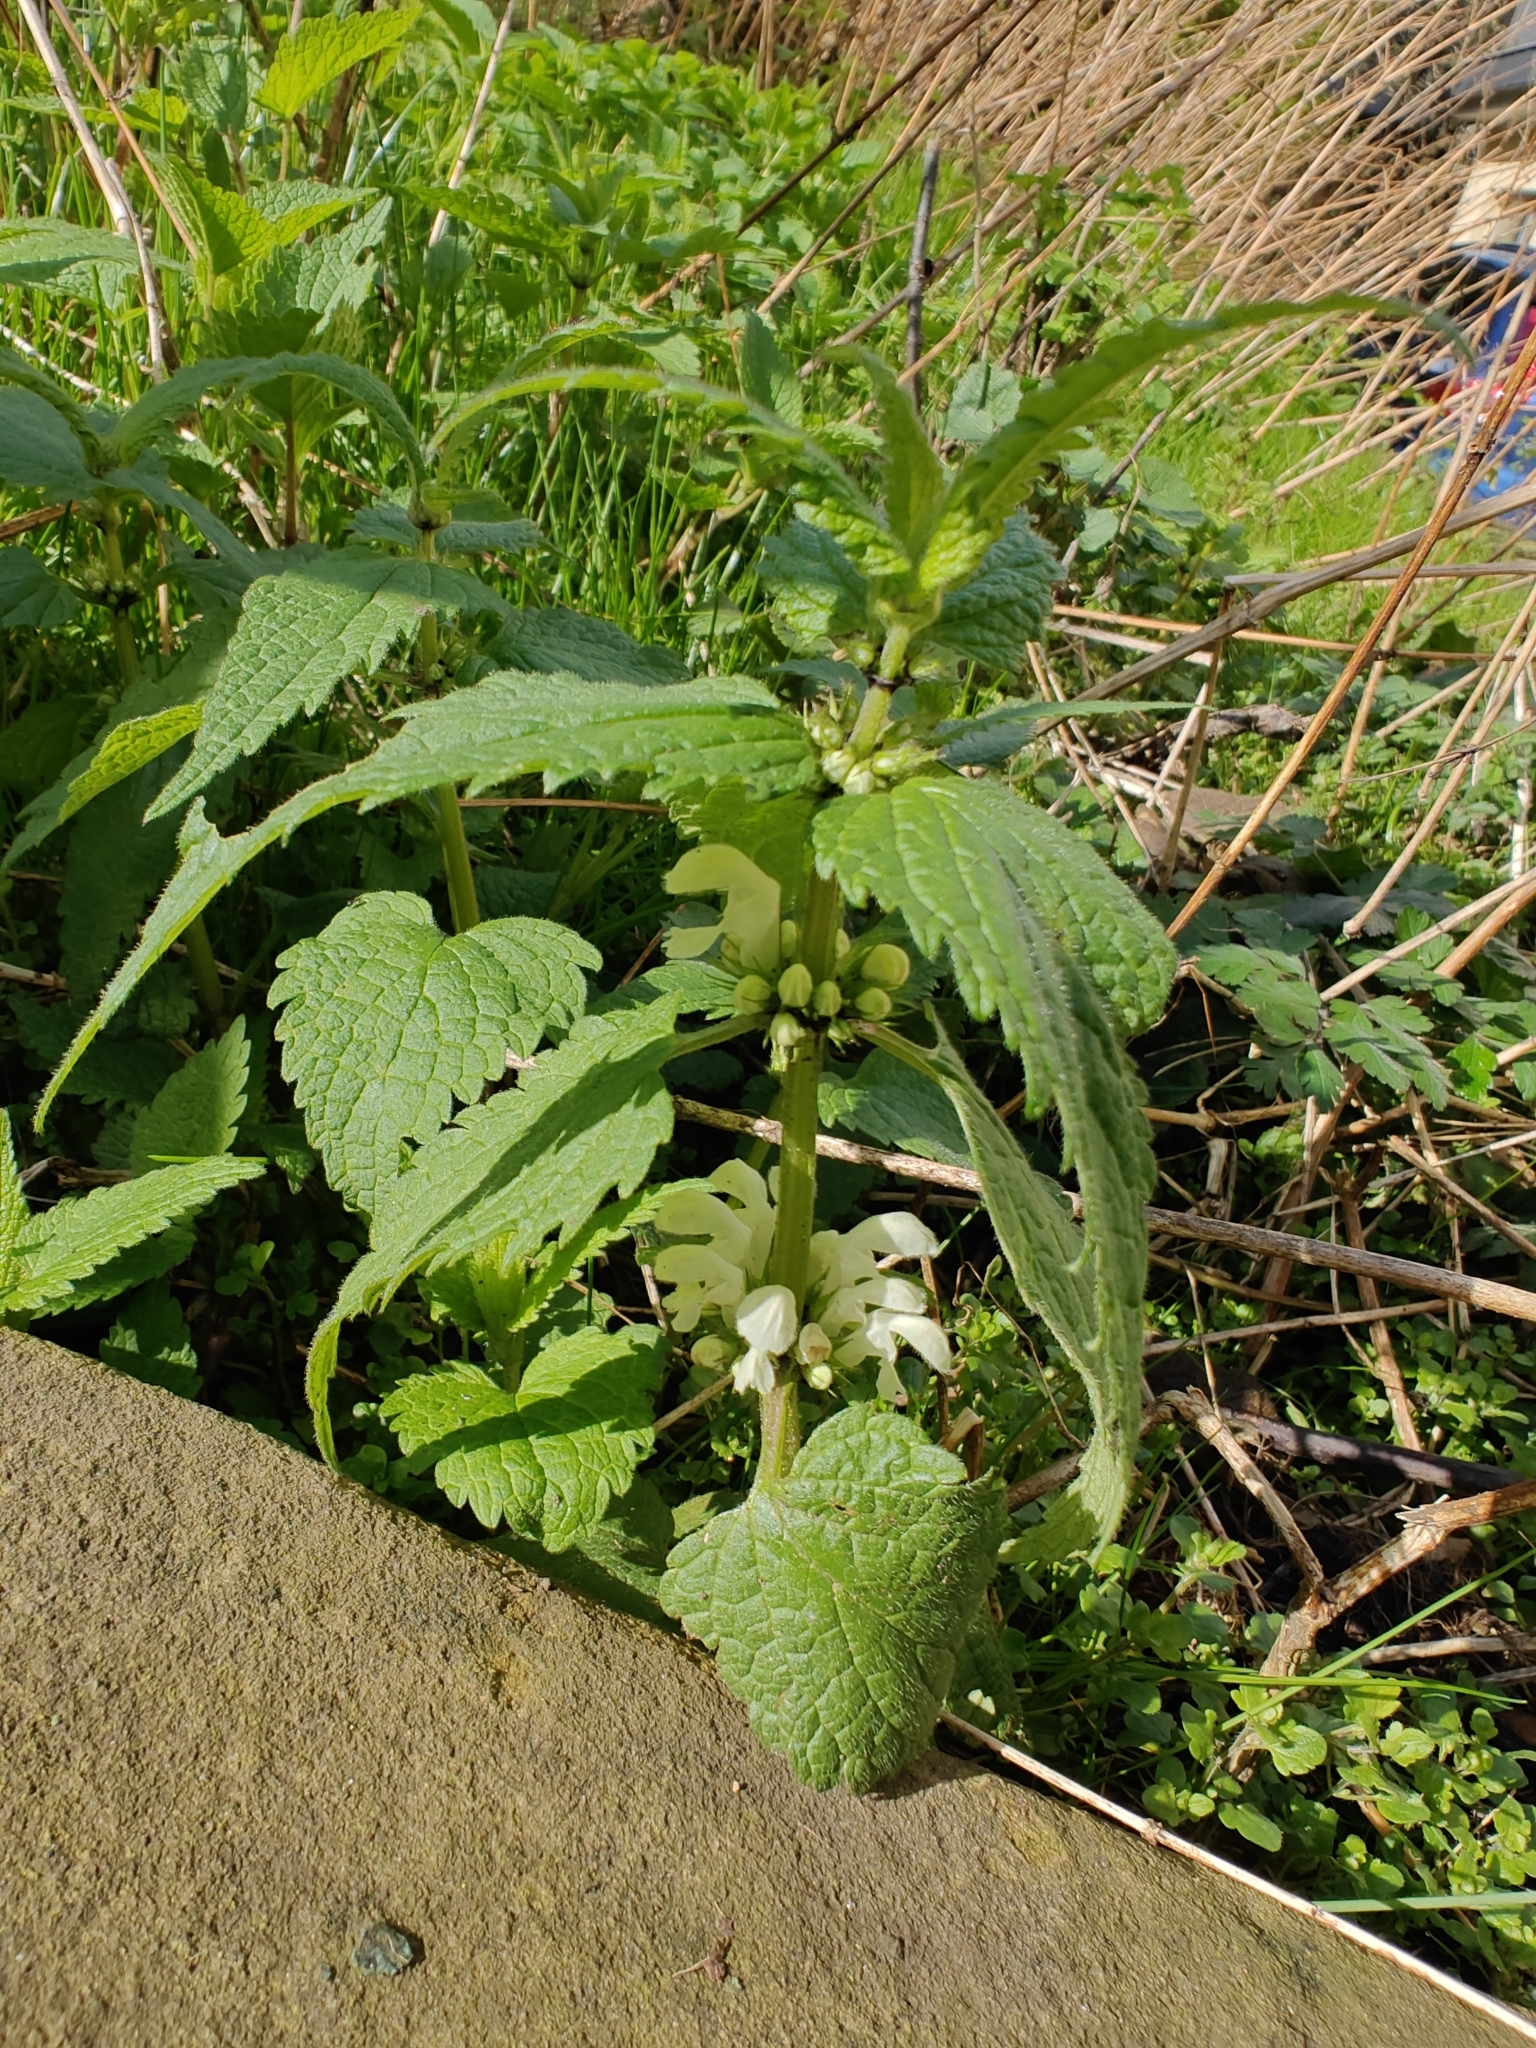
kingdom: Plantae
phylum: Tracheophyta
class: Magnoliopsida
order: Lamiales
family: Lamiaceae
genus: Lamium
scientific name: Lamium album
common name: White dead-nettle
